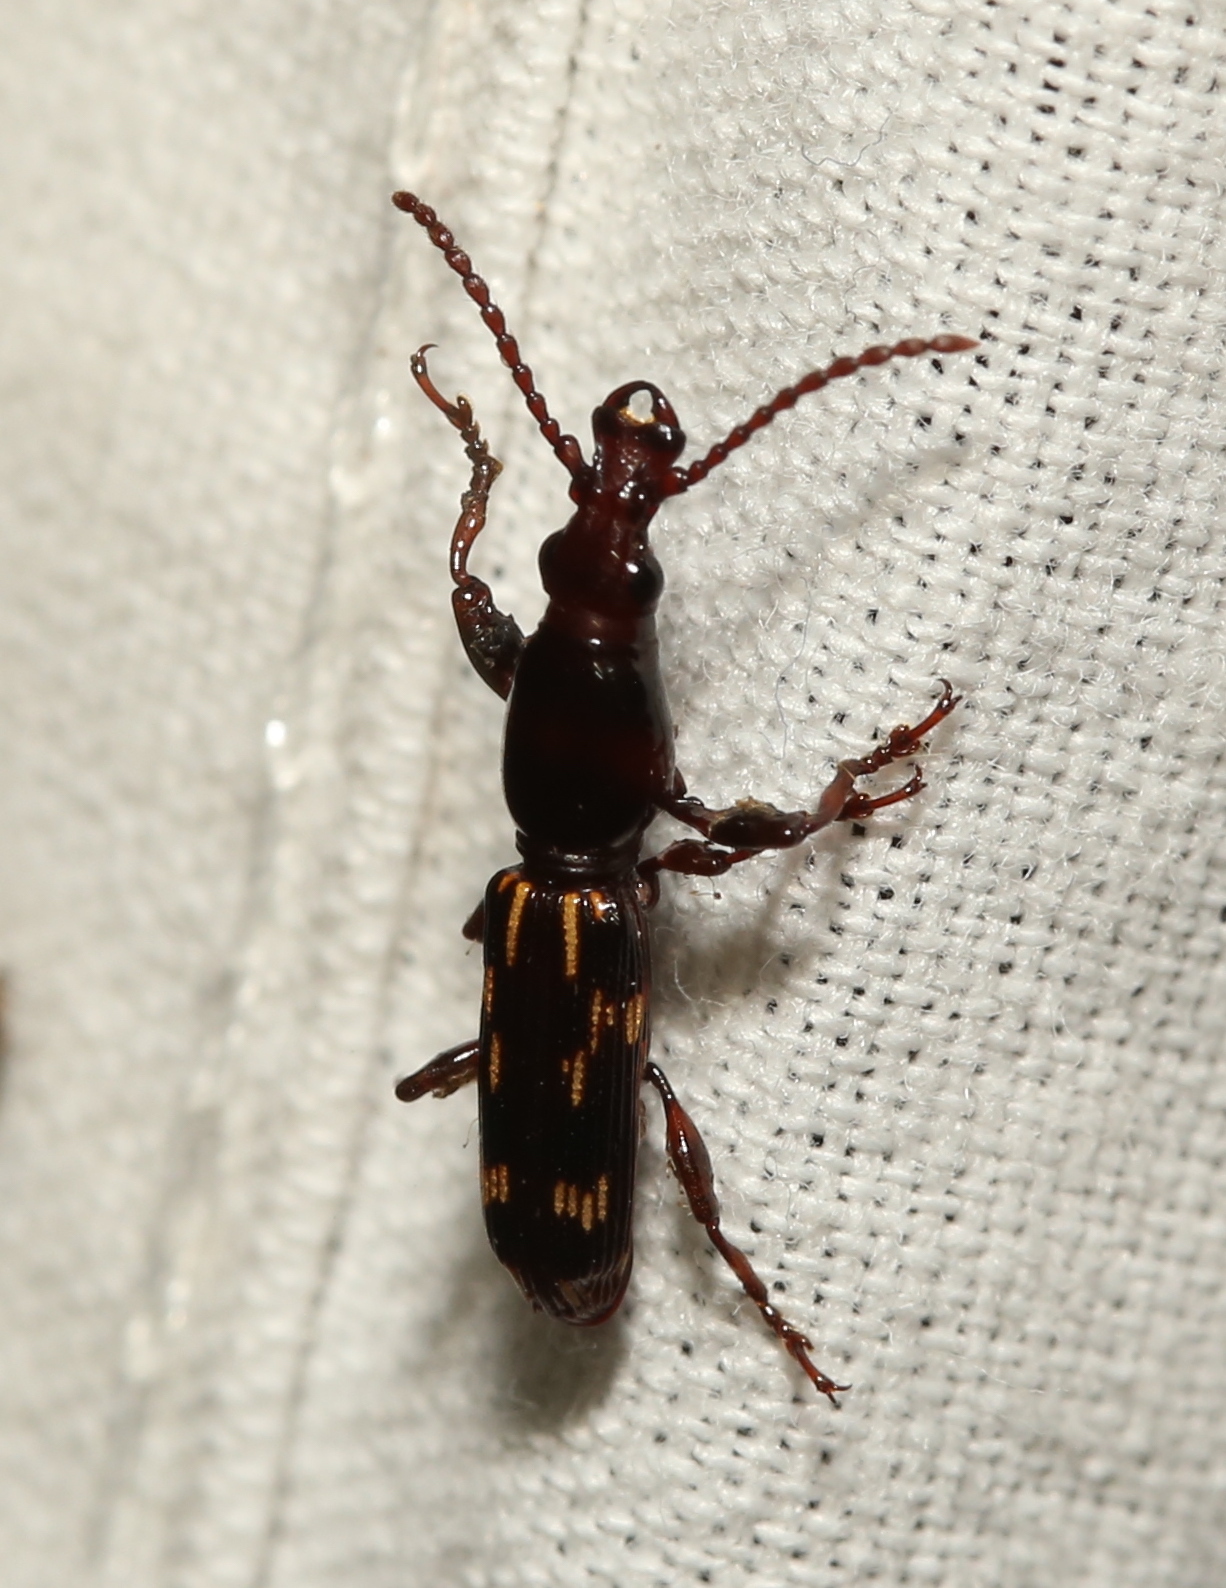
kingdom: Animalia
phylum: Arthropoda
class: Insecta
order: Coleoptera
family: Brentidae
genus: Arrenodes
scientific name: Arrenodes minutus
